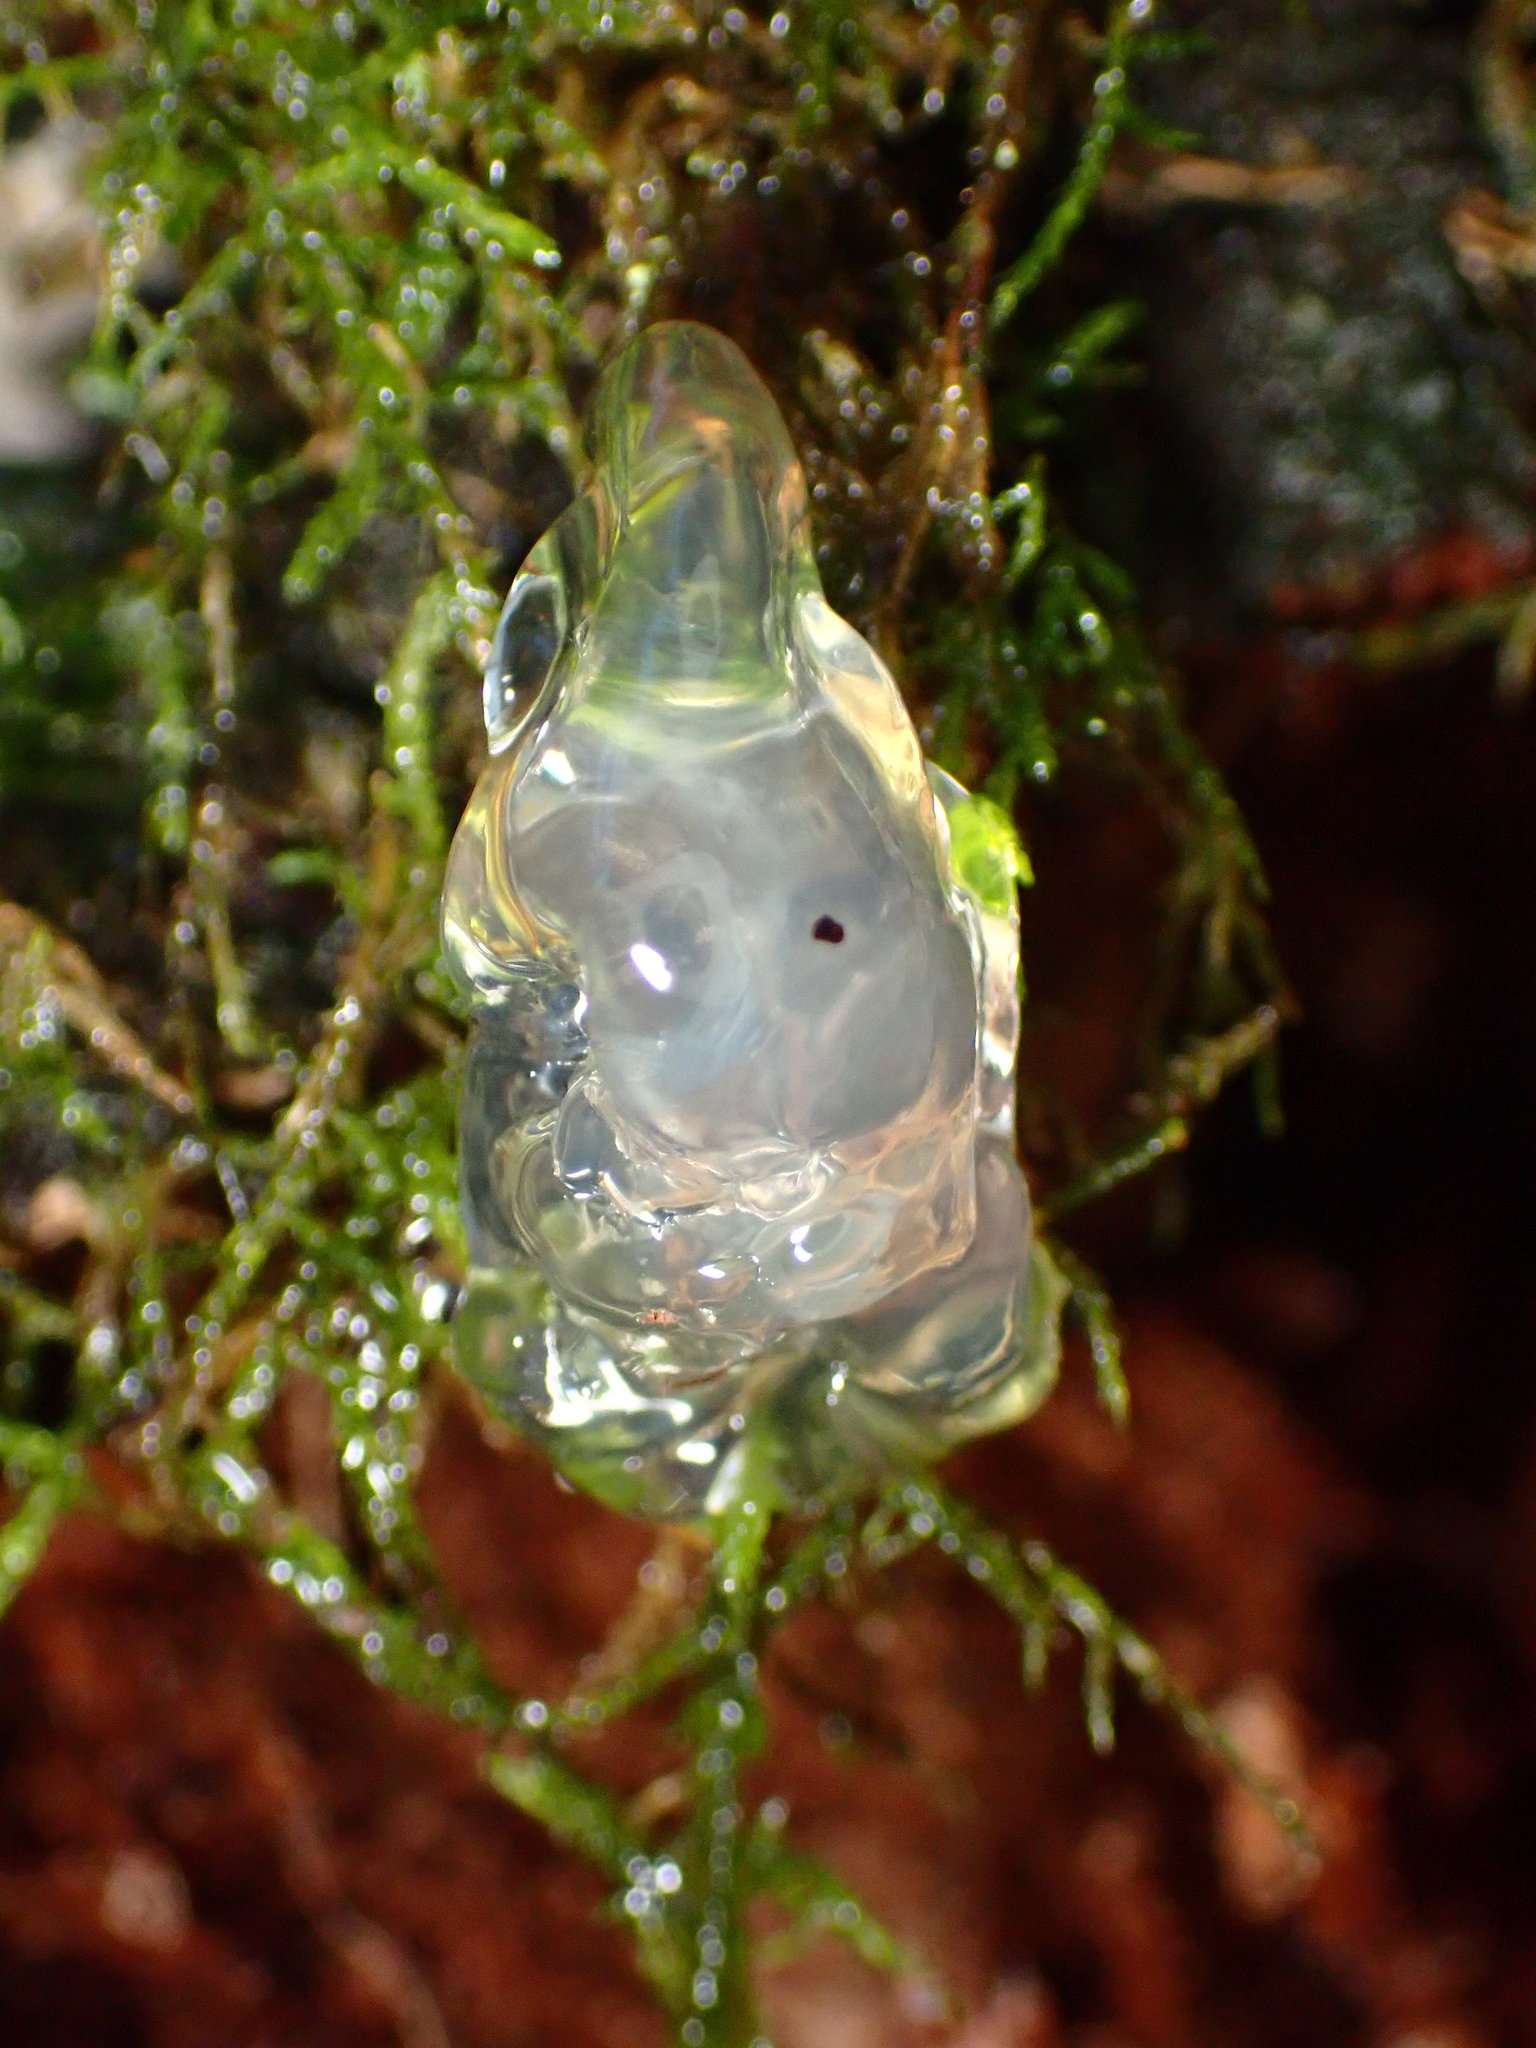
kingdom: Fungi
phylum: Basidiomycota
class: Agaricomycetes
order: Auriculariales
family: Hyaloriaceae
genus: Myxarium
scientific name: Myxarium nucleatum
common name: Crystal brain fungus
